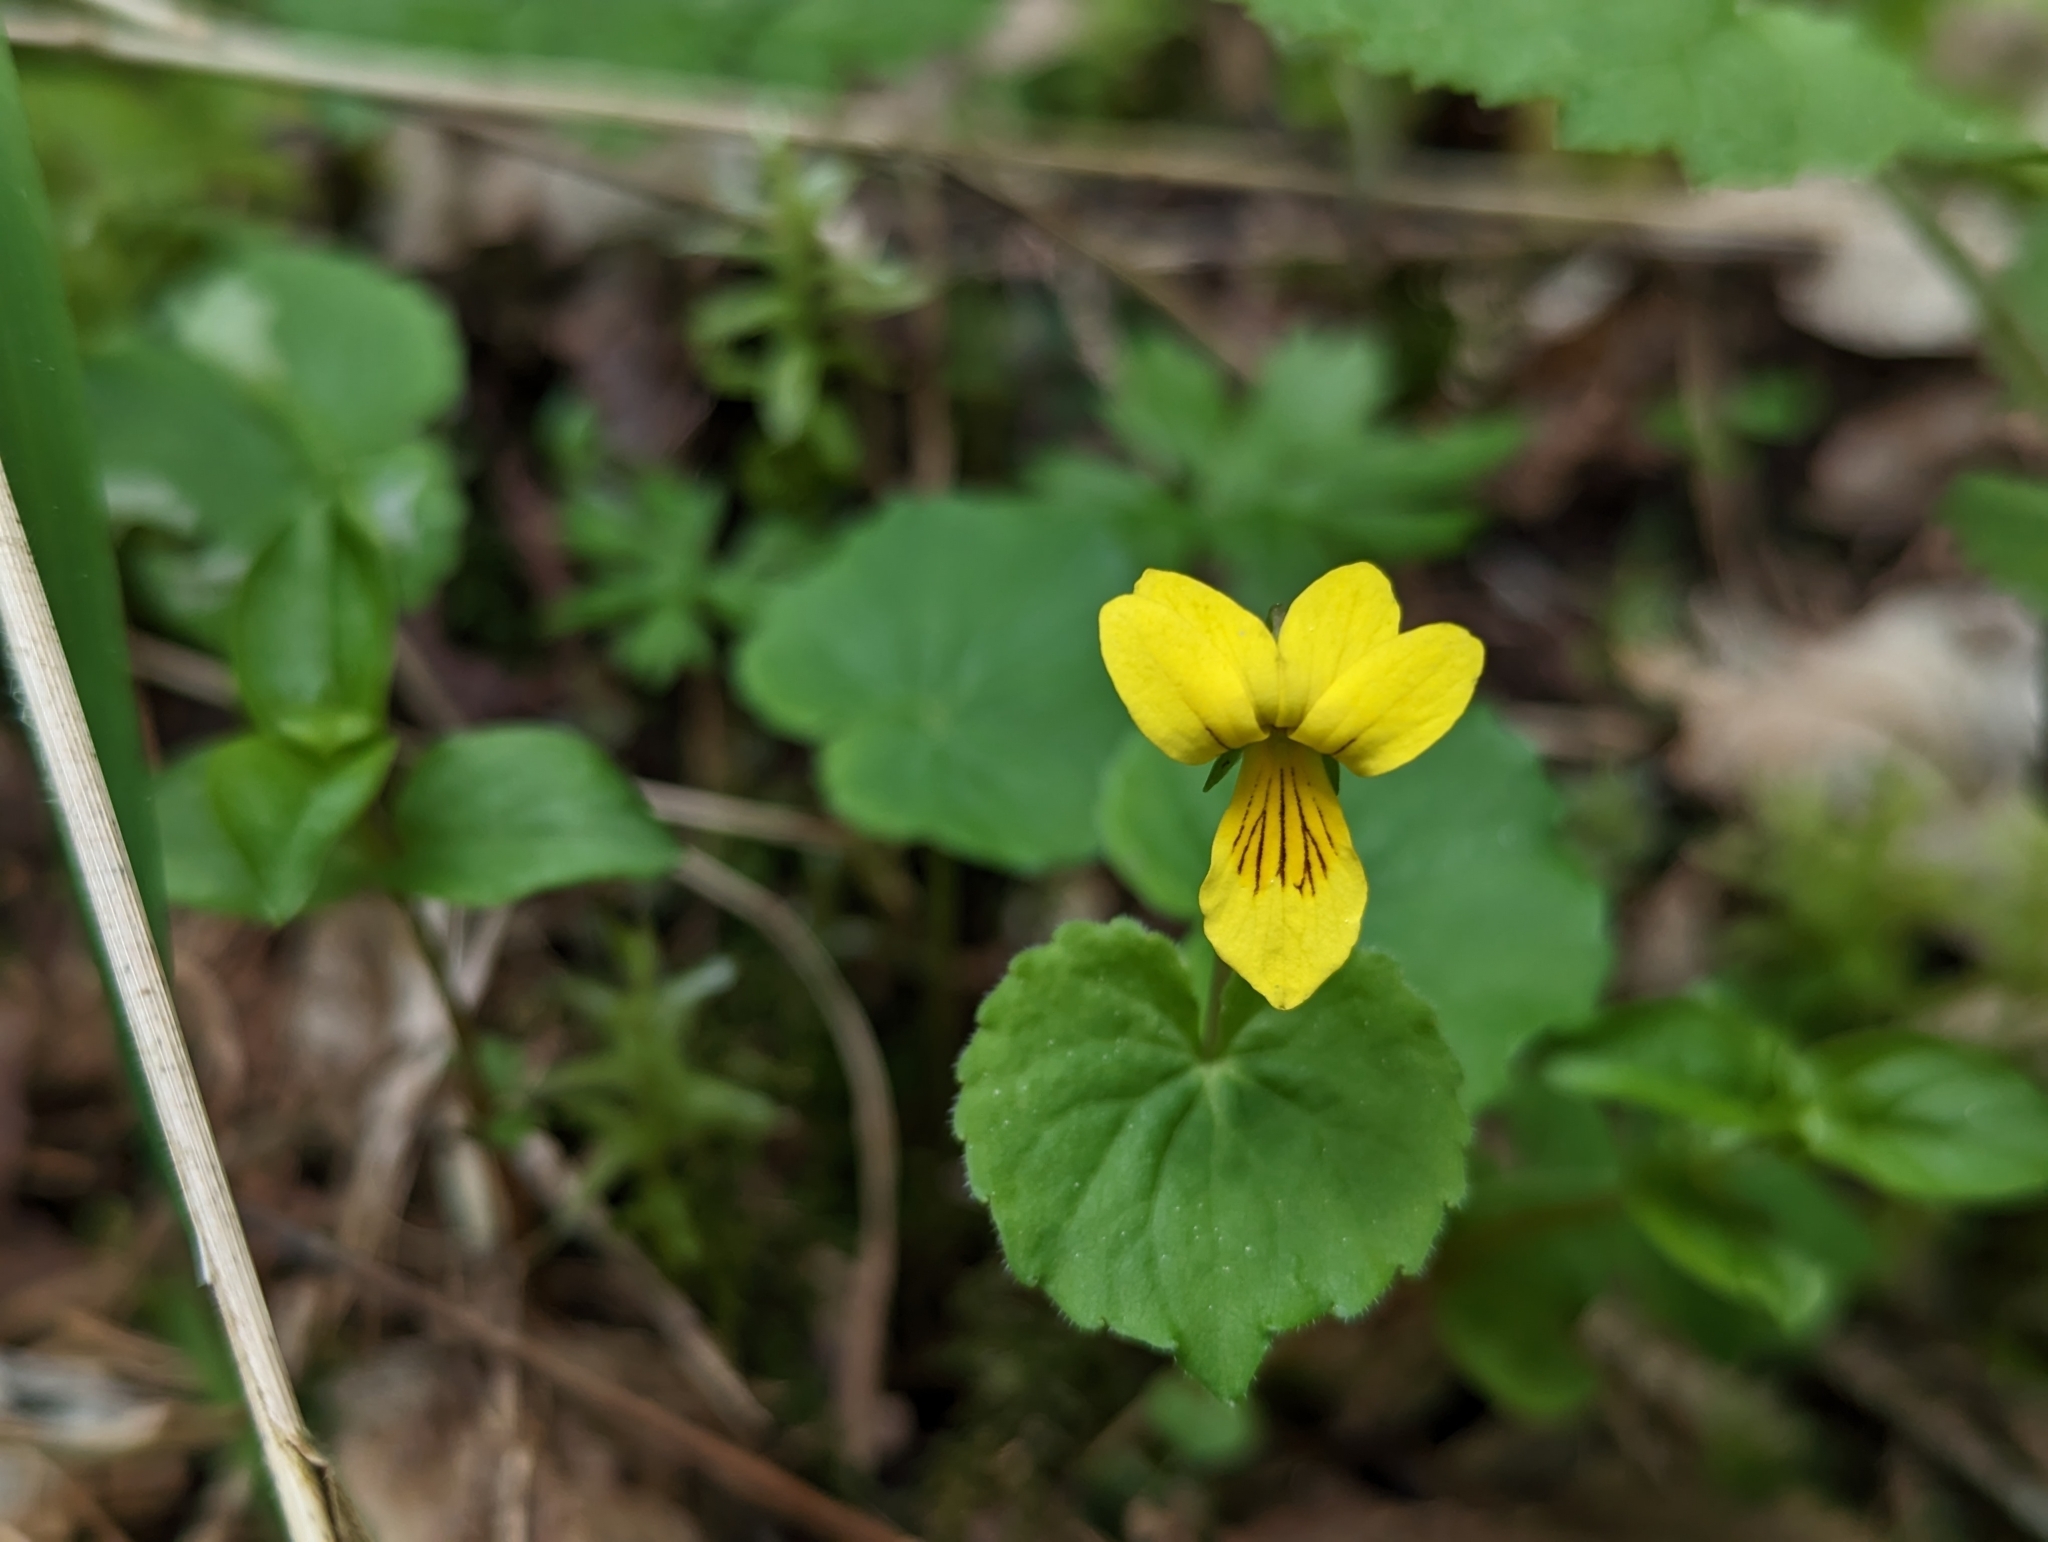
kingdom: Plantae
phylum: Tracheophyta
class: Magnoliopsida
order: Malpighiales
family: Violaceae
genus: Viola
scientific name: Viola biflora
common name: Alpine yellow violet
